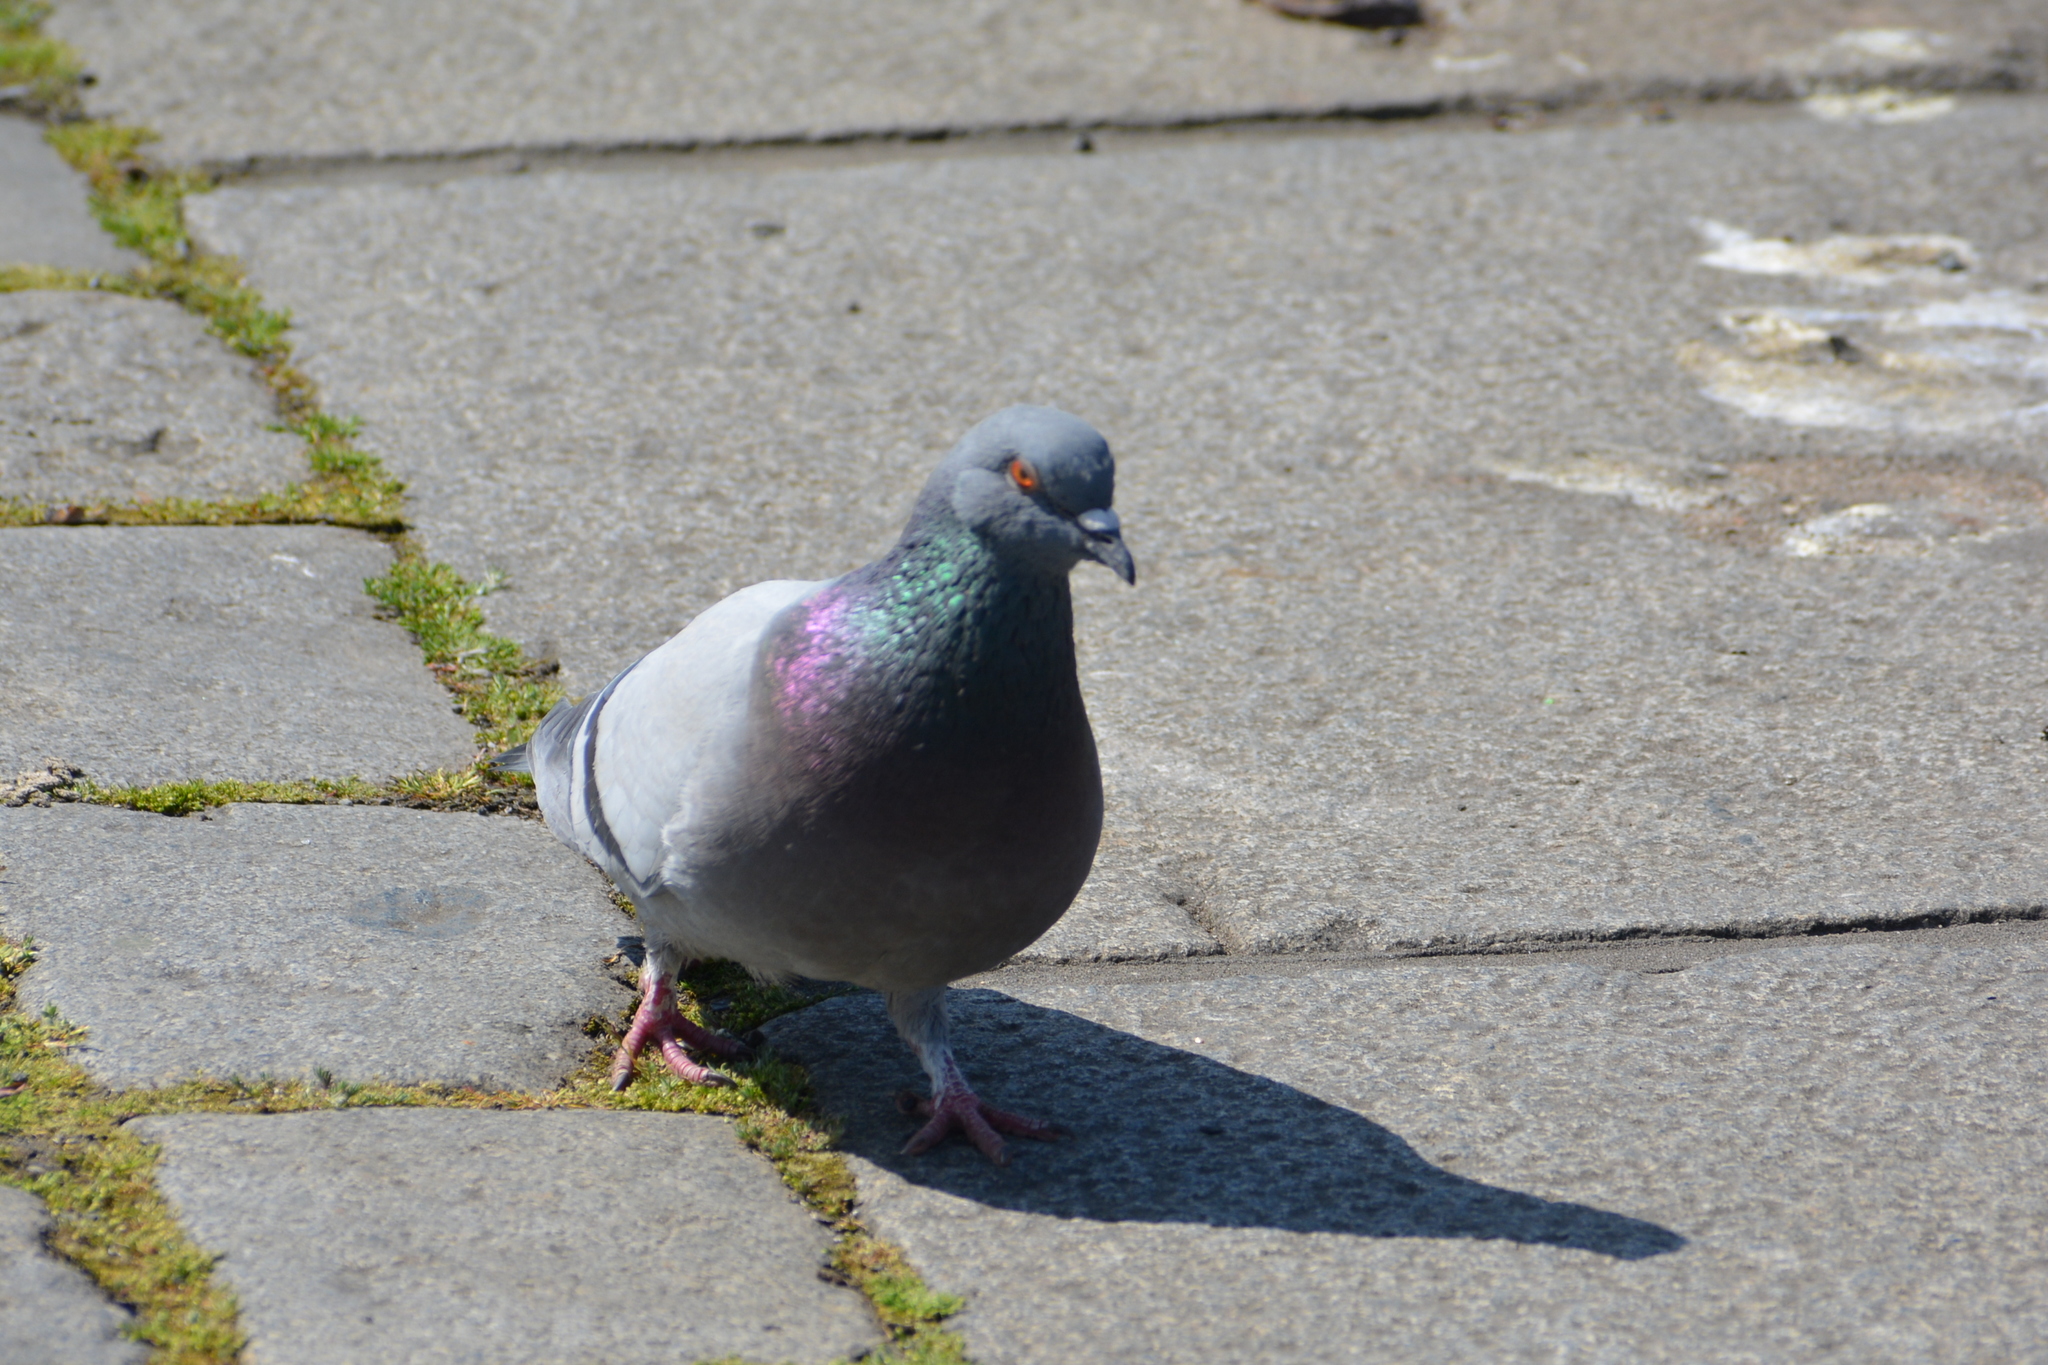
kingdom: Animalia
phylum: Chordata
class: Aves
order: Columbiformes
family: Columbidae
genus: Columba
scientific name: Columba livia
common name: Rock pigeon
